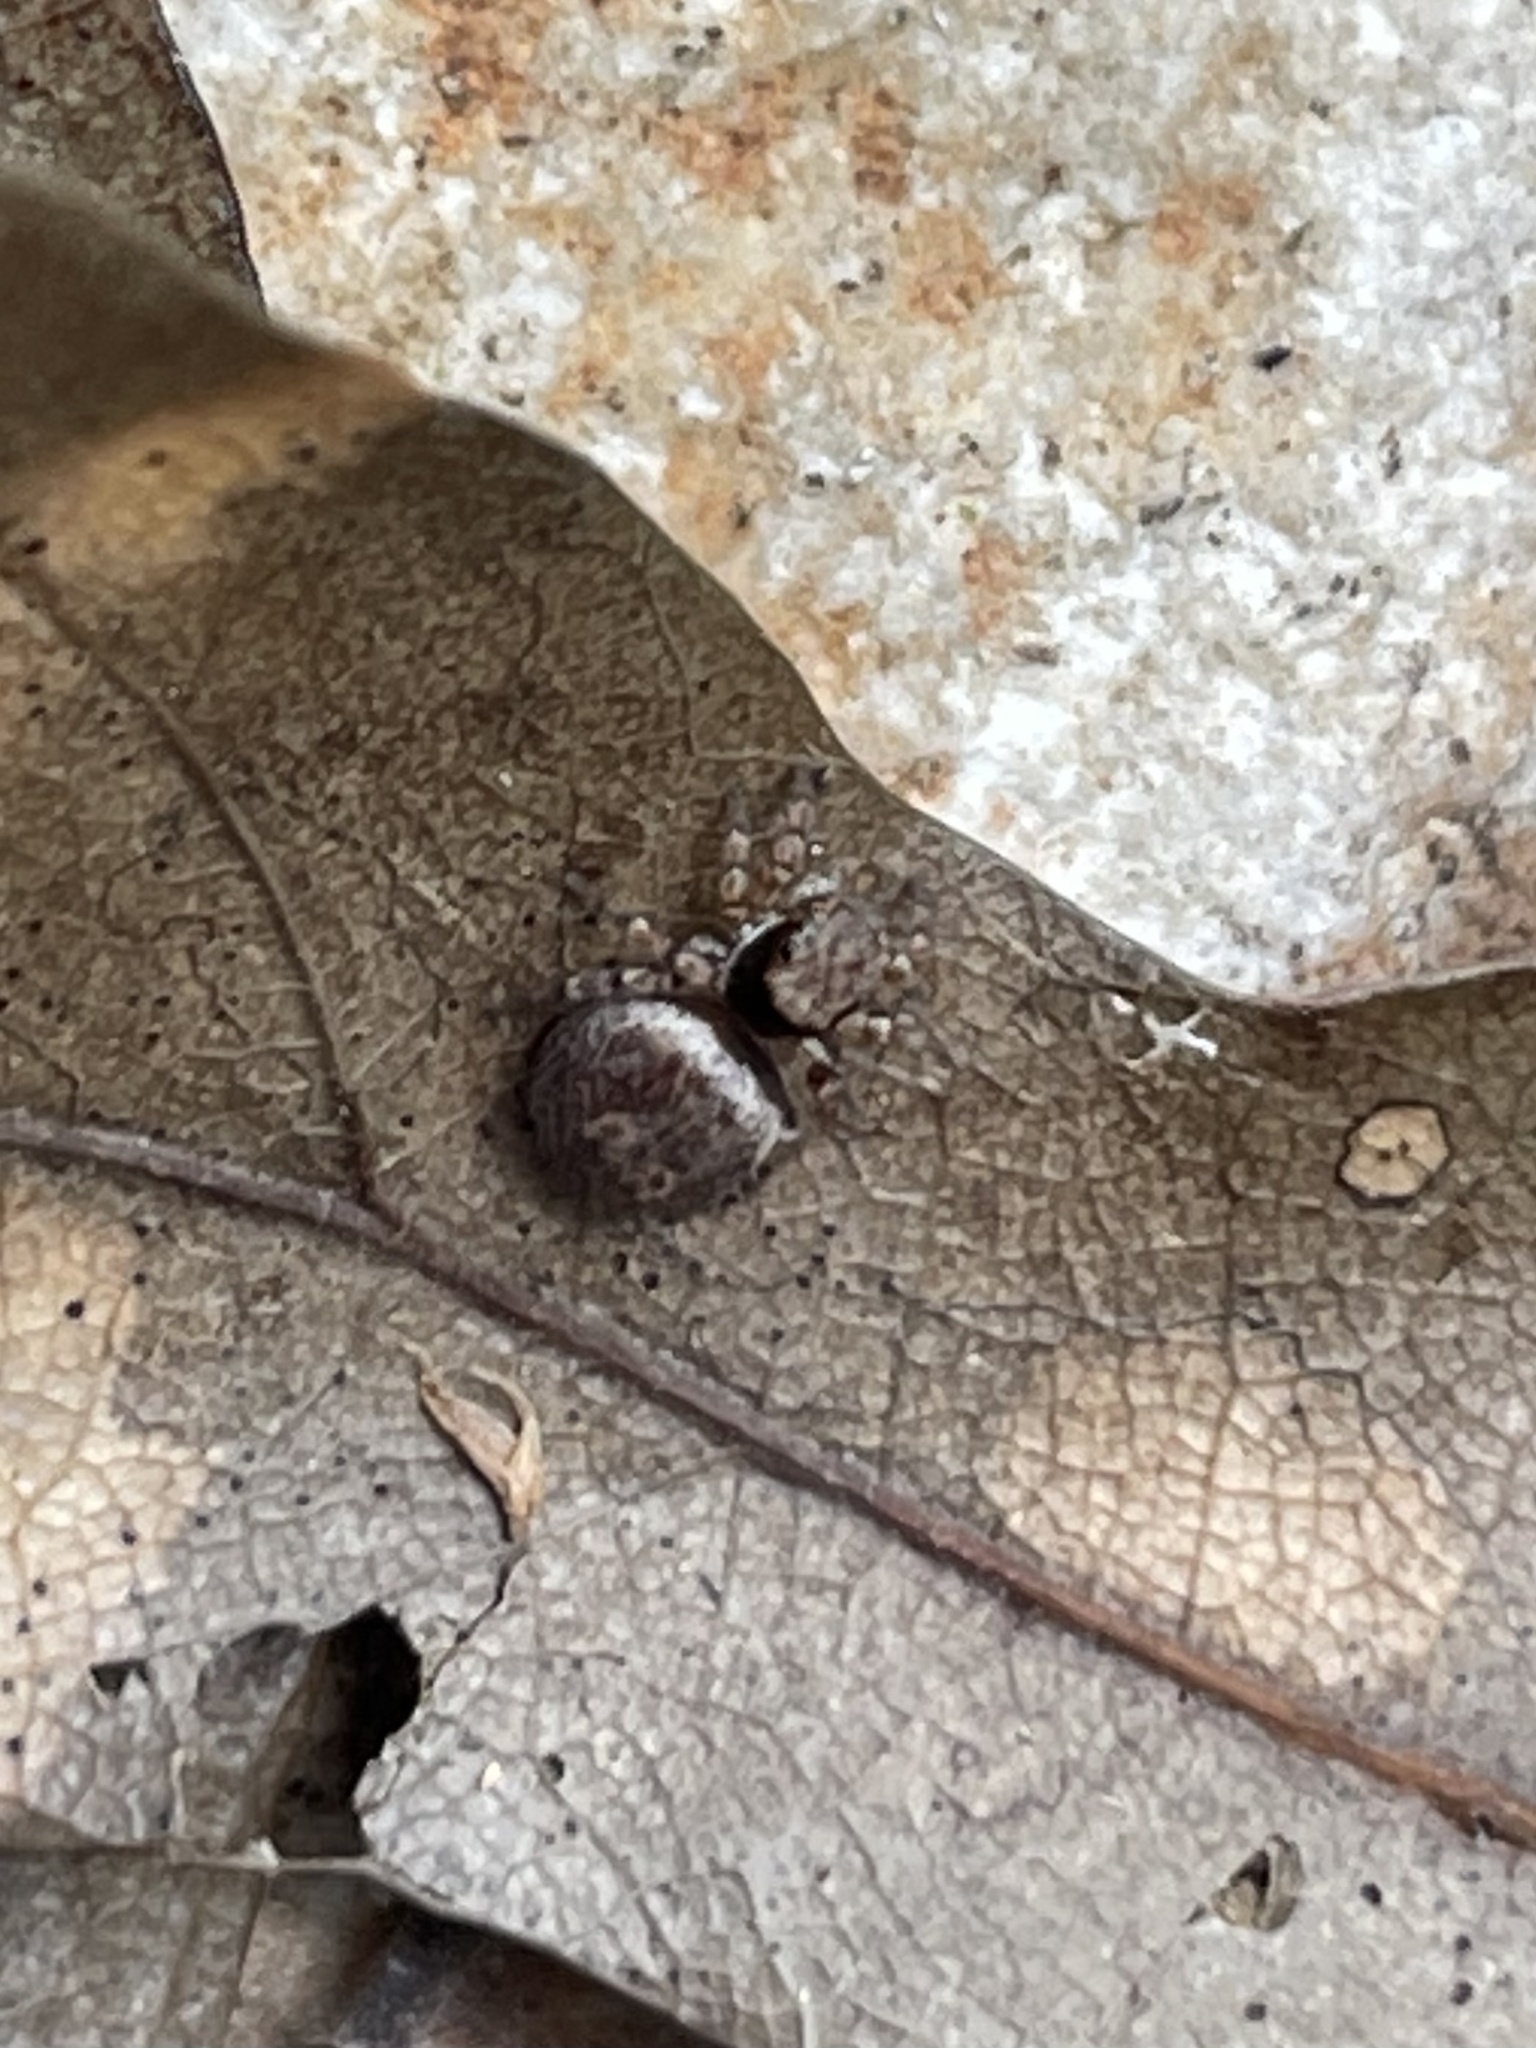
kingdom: Animalia
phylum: Arthropoda
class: Arachnida
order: Araneae
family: Salticidae
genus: Naphrys
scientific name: Naphrys acerba
